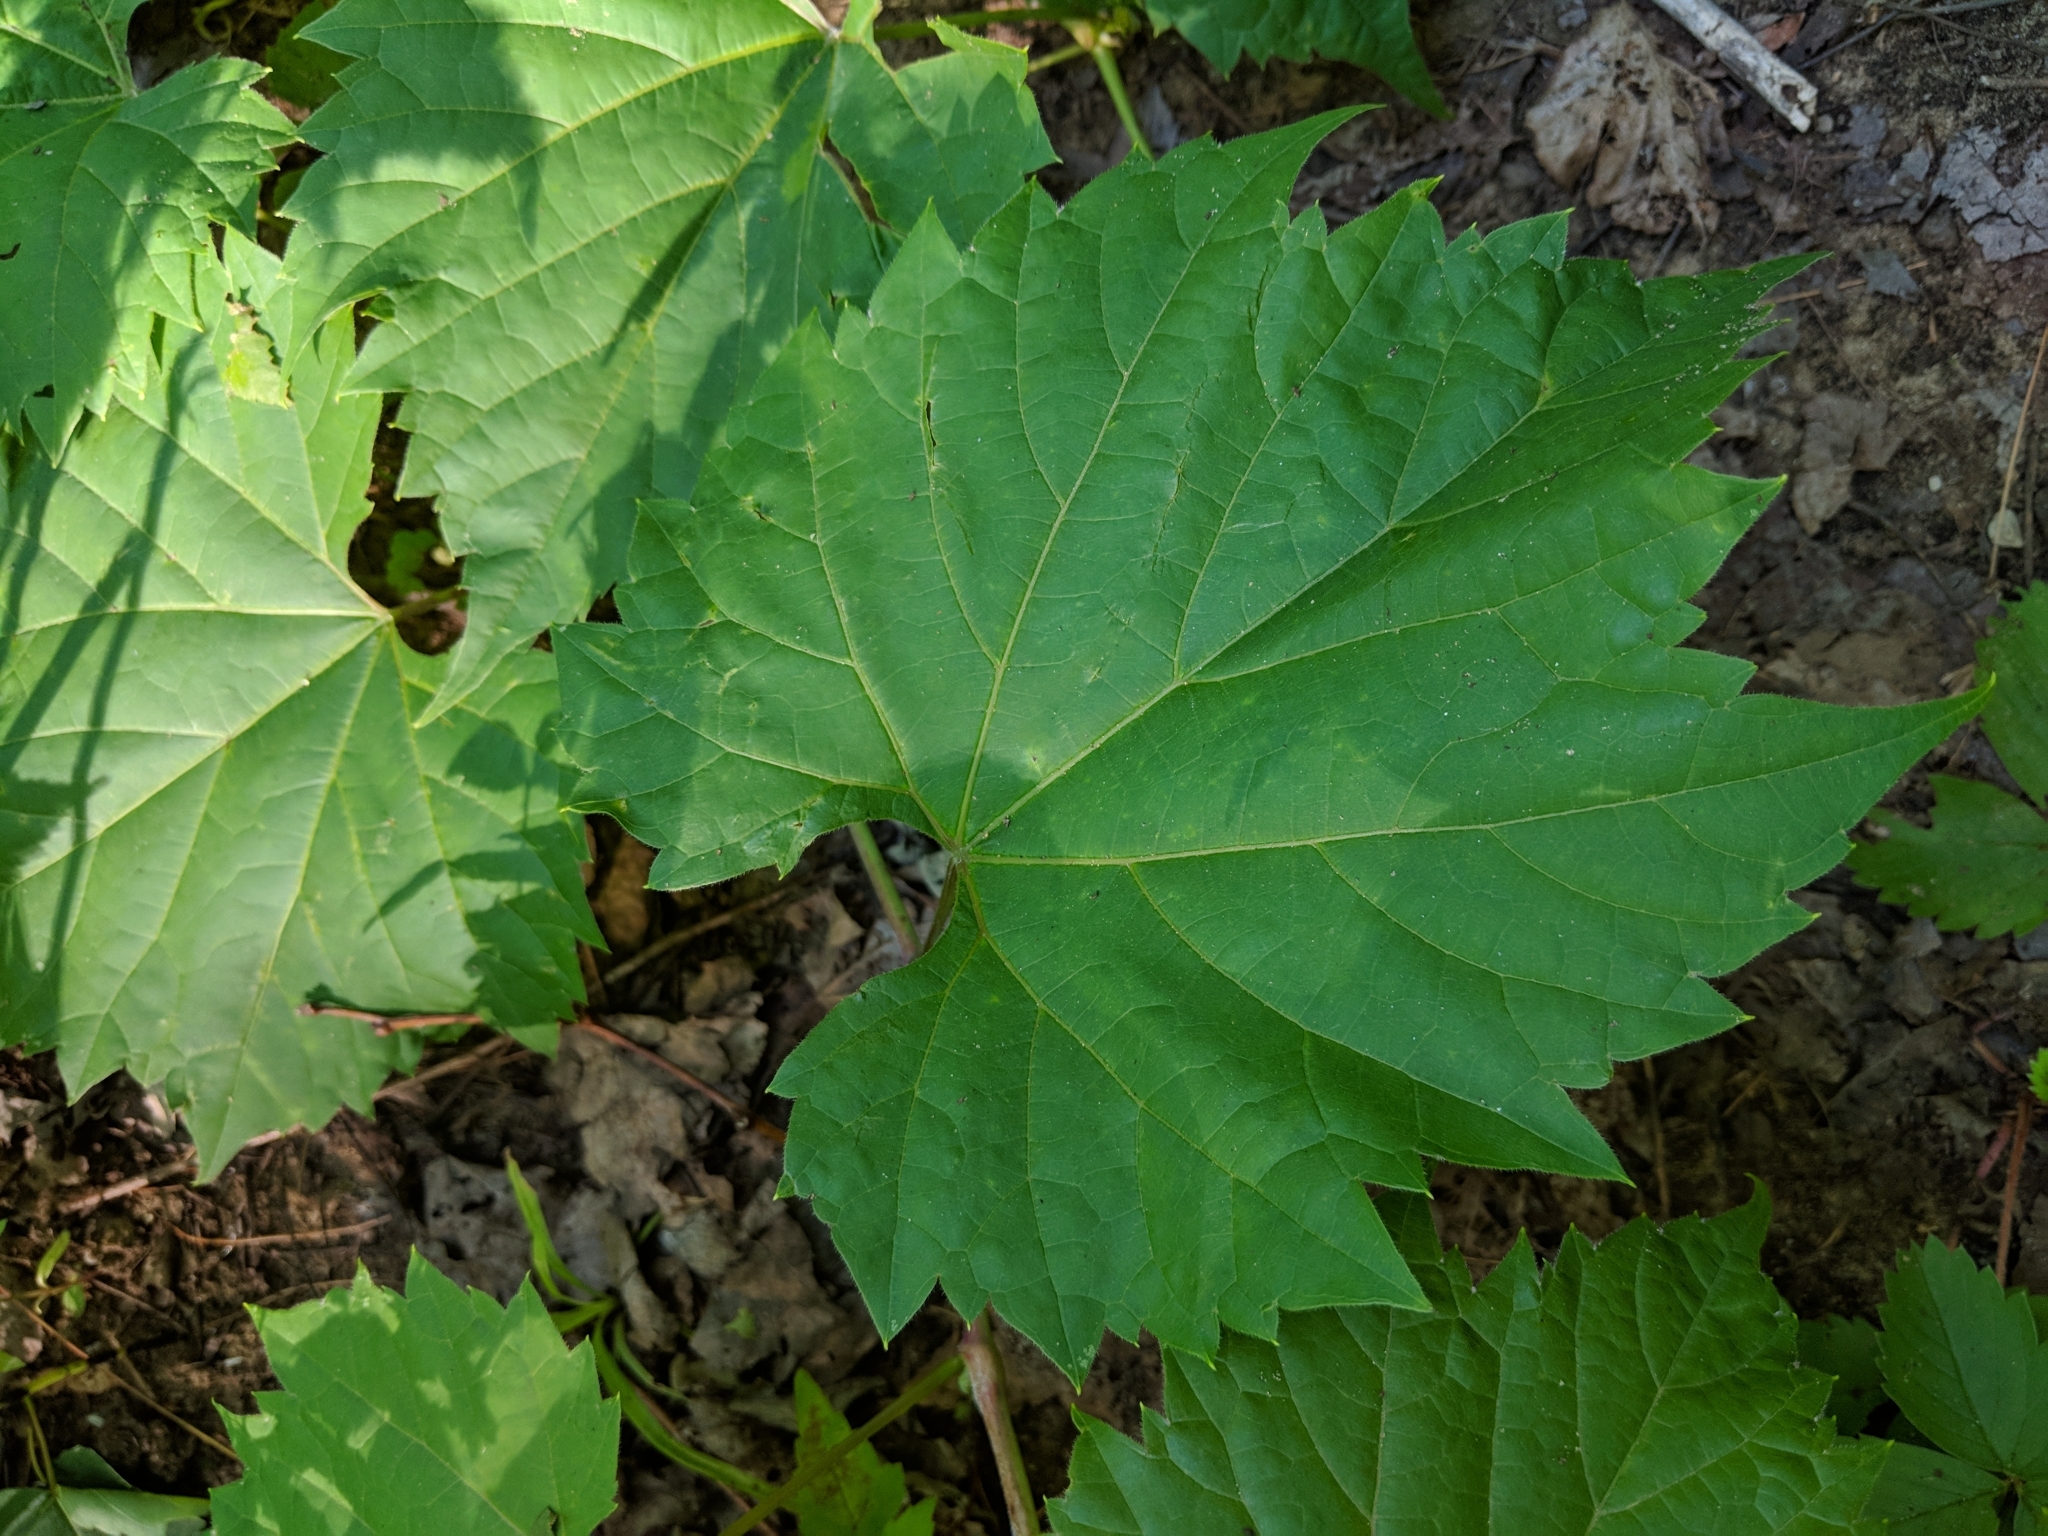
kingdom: Plantae
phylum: Tracheophyta
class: Magnoliopsida
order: Vitales
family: Vitaceae
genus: Vitis
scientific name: Vitis riparia
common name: Frost grape
